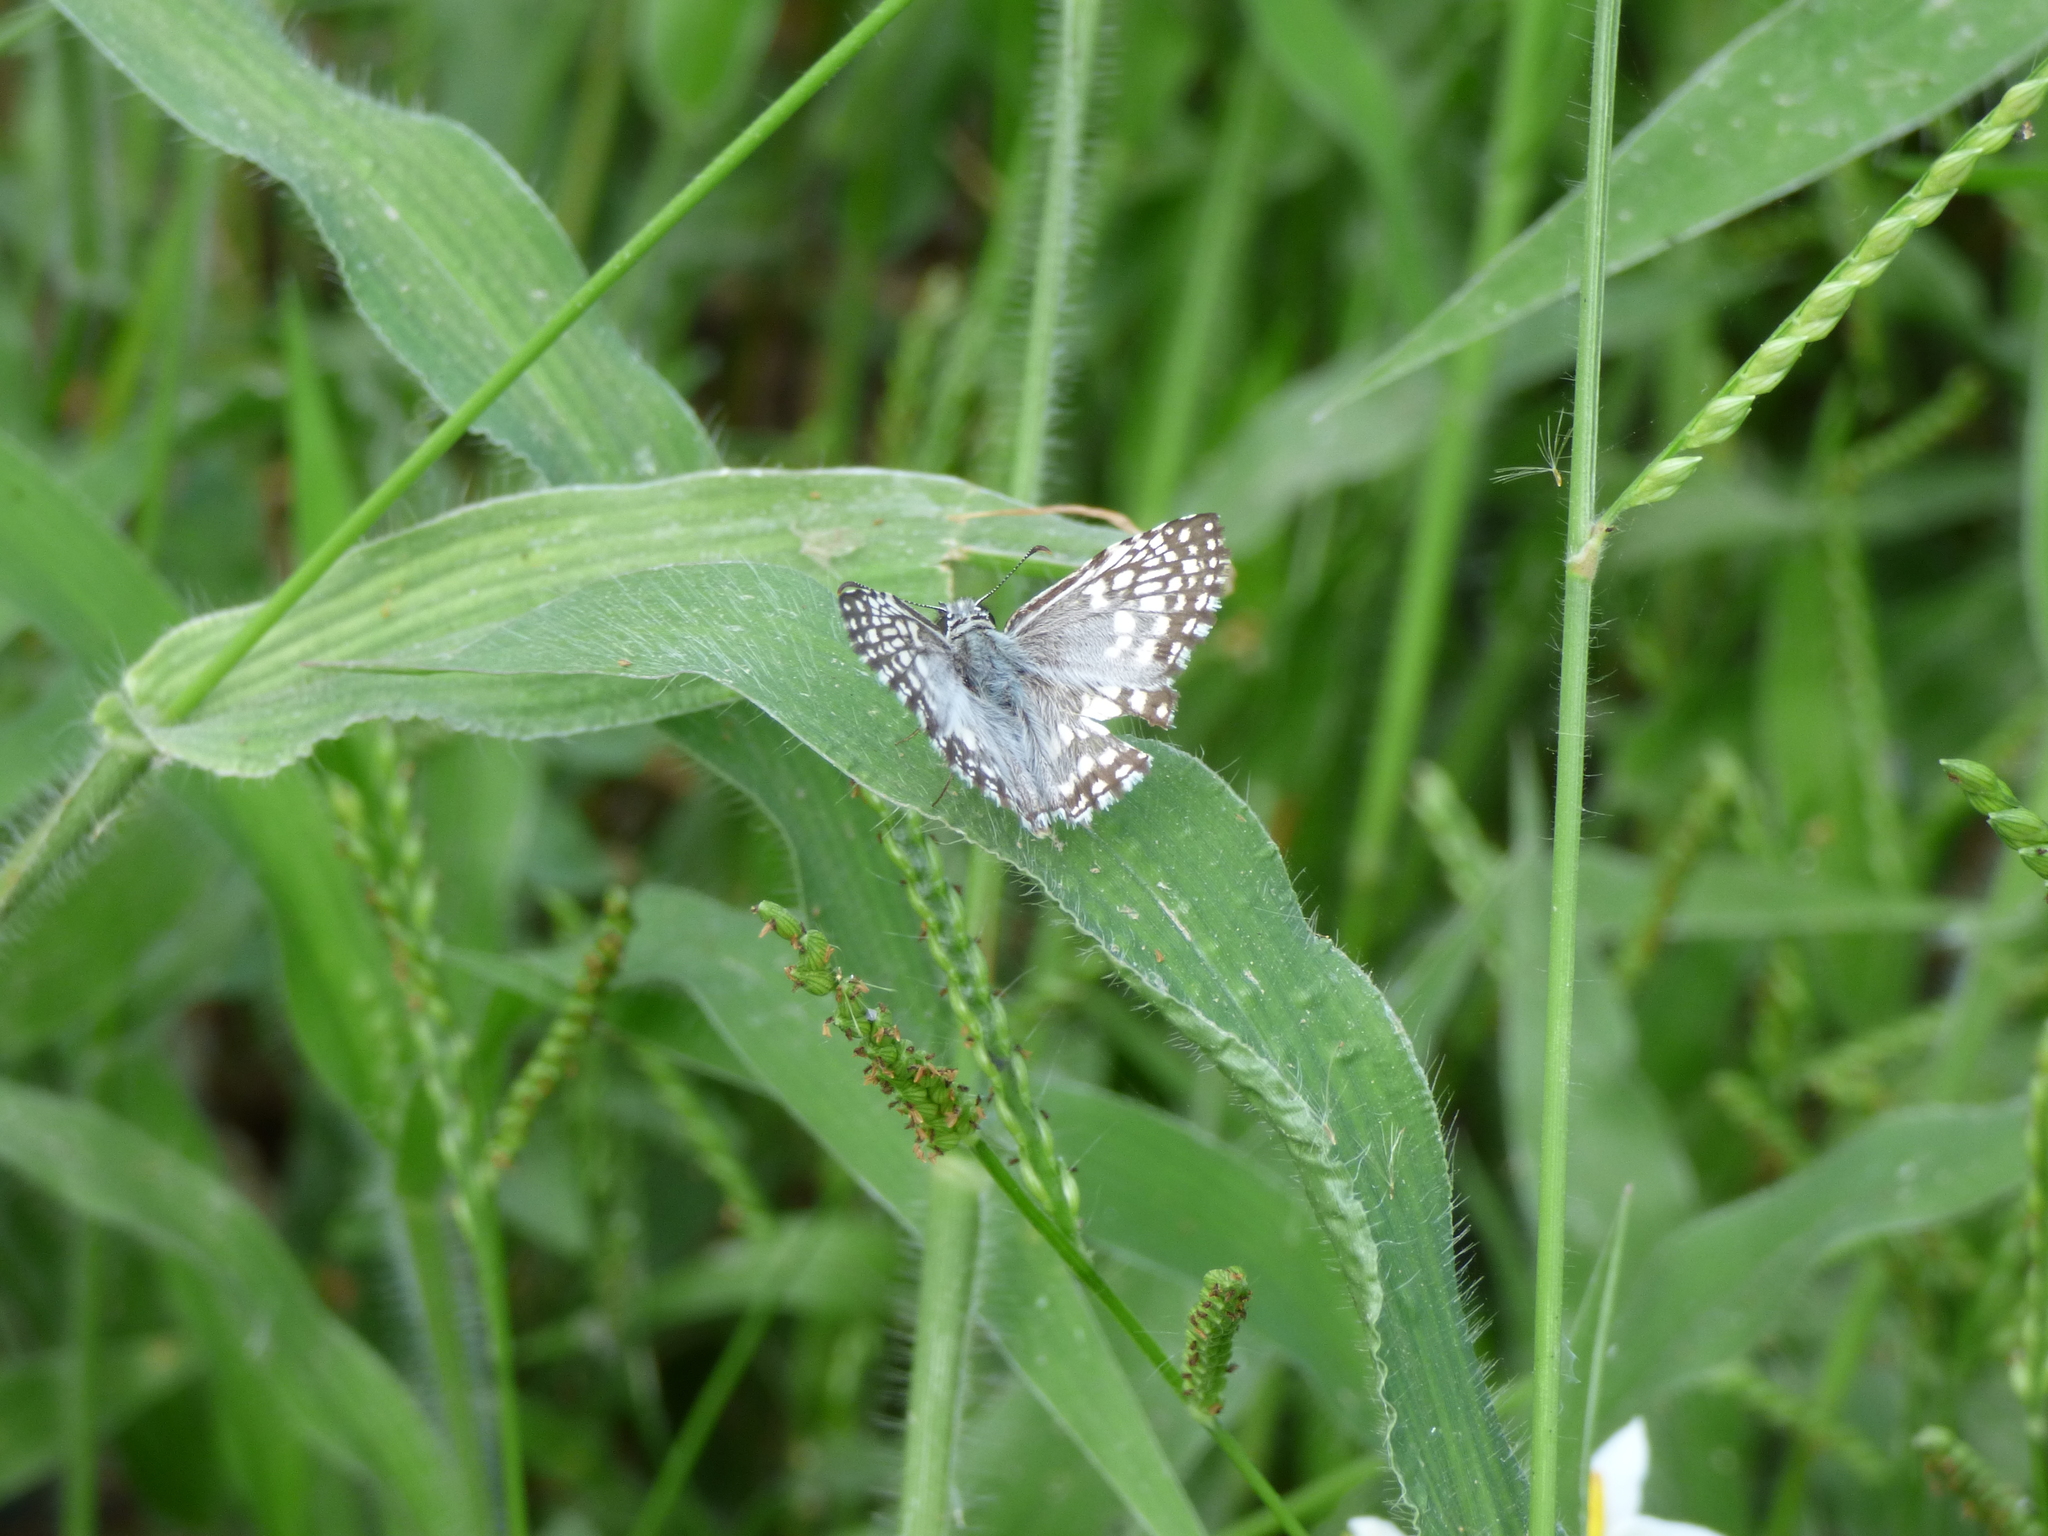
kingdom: Animalia
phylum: Arthropoda
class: Insecta
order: Lepidoptera
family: Hesperiidae
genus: Pyrgus
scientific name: Pyrgus oileus
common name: Tropical checkered-skipper
